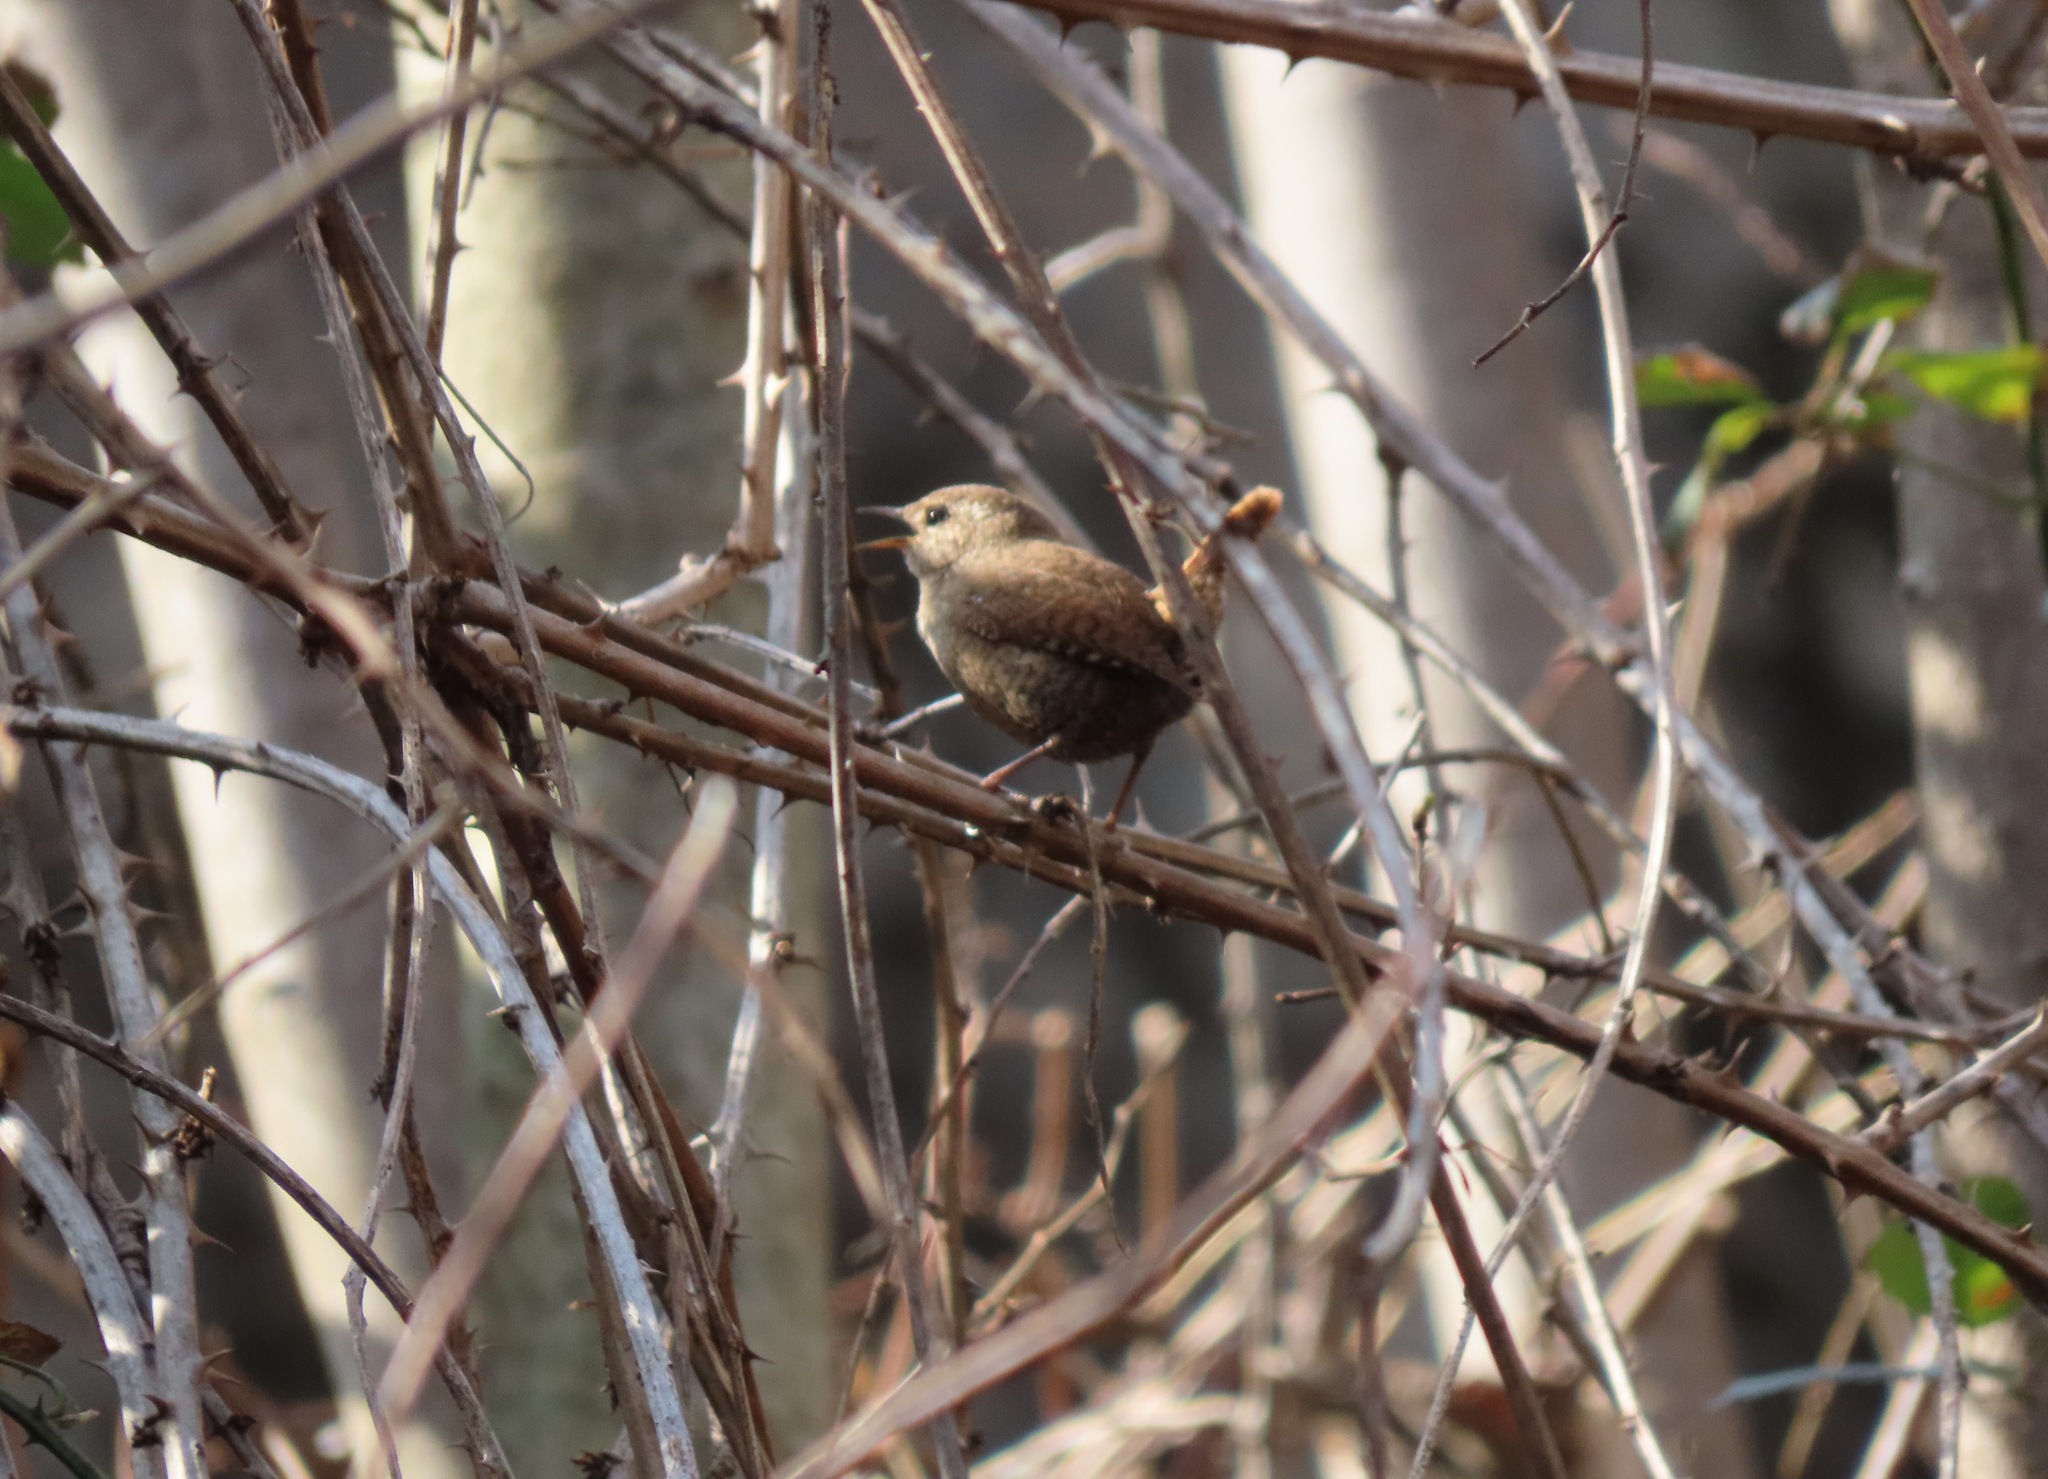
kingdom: Animalia
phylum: Chordata
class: Aves
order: Passeriformes
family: Troglodytidae
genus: Troglodytes
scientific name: Troglodytes troglodytes
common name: Eurasian wren
